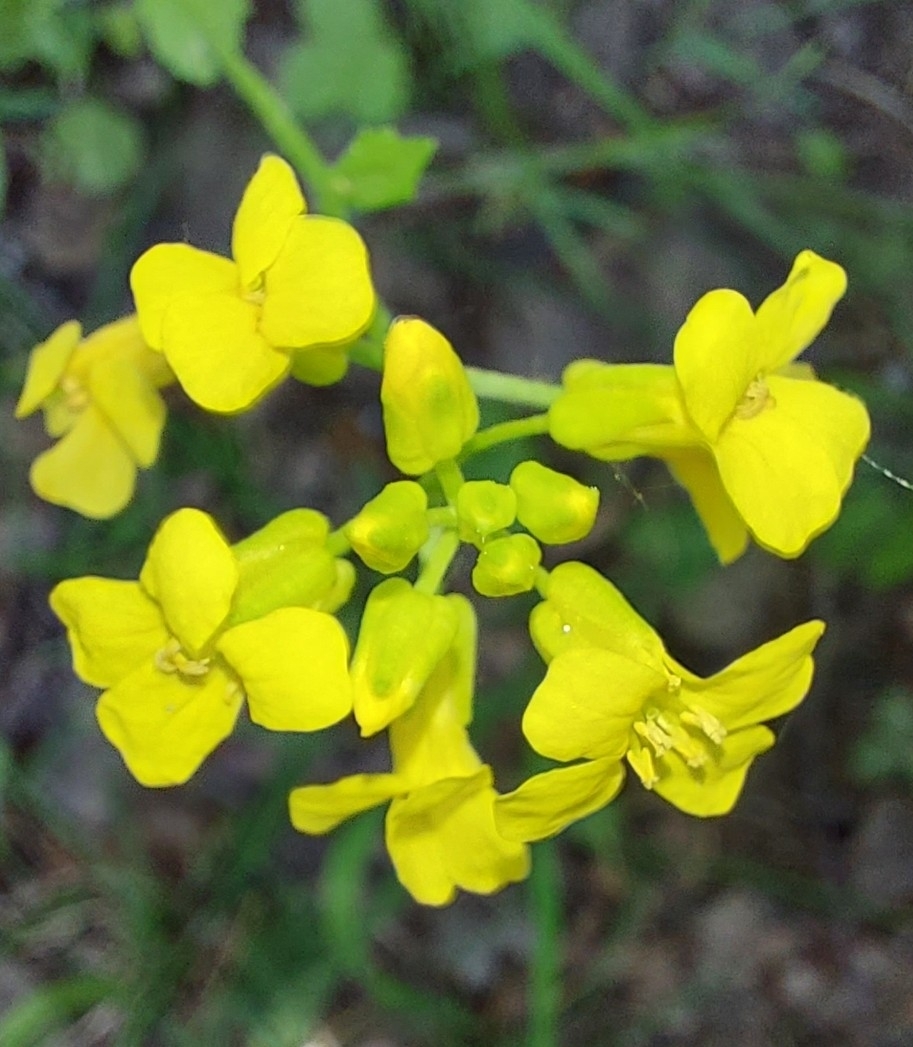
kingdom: Plantae
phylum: Tracheophyta
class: Magnoliopsida
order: Brassicales
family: Brassicaceae
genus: Barbarea
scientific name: Barbarea vulgaris
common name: Cressy-greens
